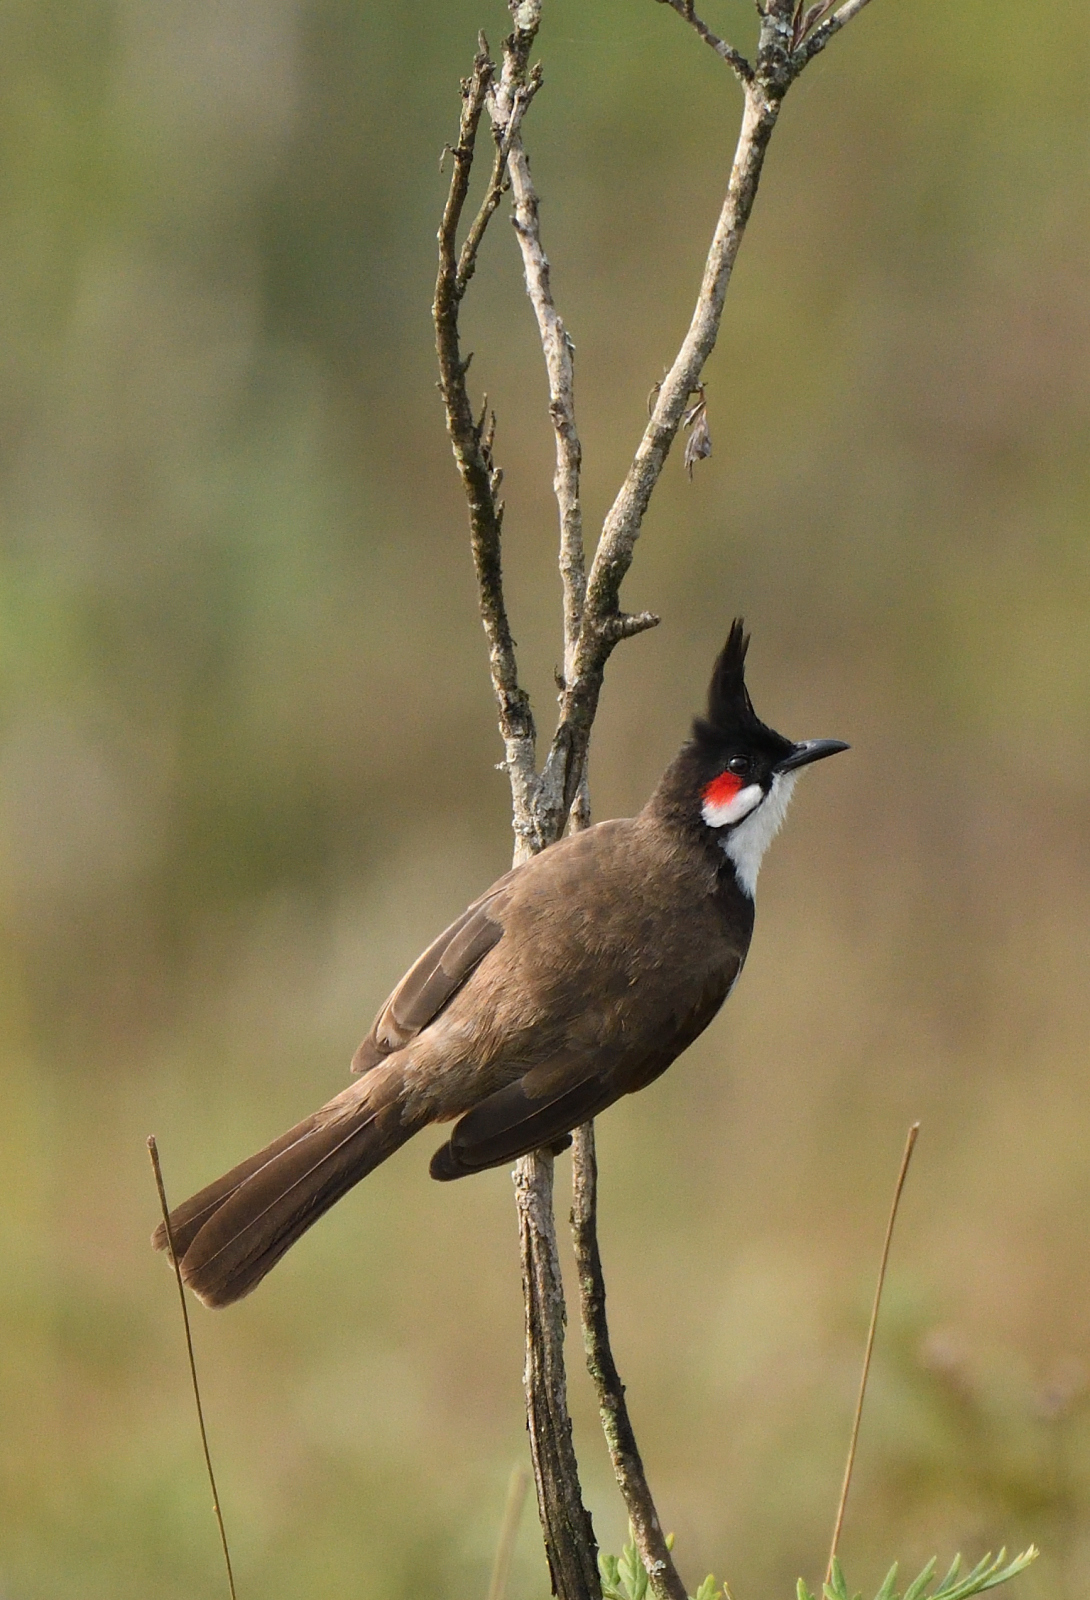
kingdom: Animalia
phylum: Chordata
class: Aves
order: Passeriformes
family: Pycnonotidae
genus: Pycnonotus
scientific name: Pycnonotus jocosus
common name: Red-whiskered bulbul
